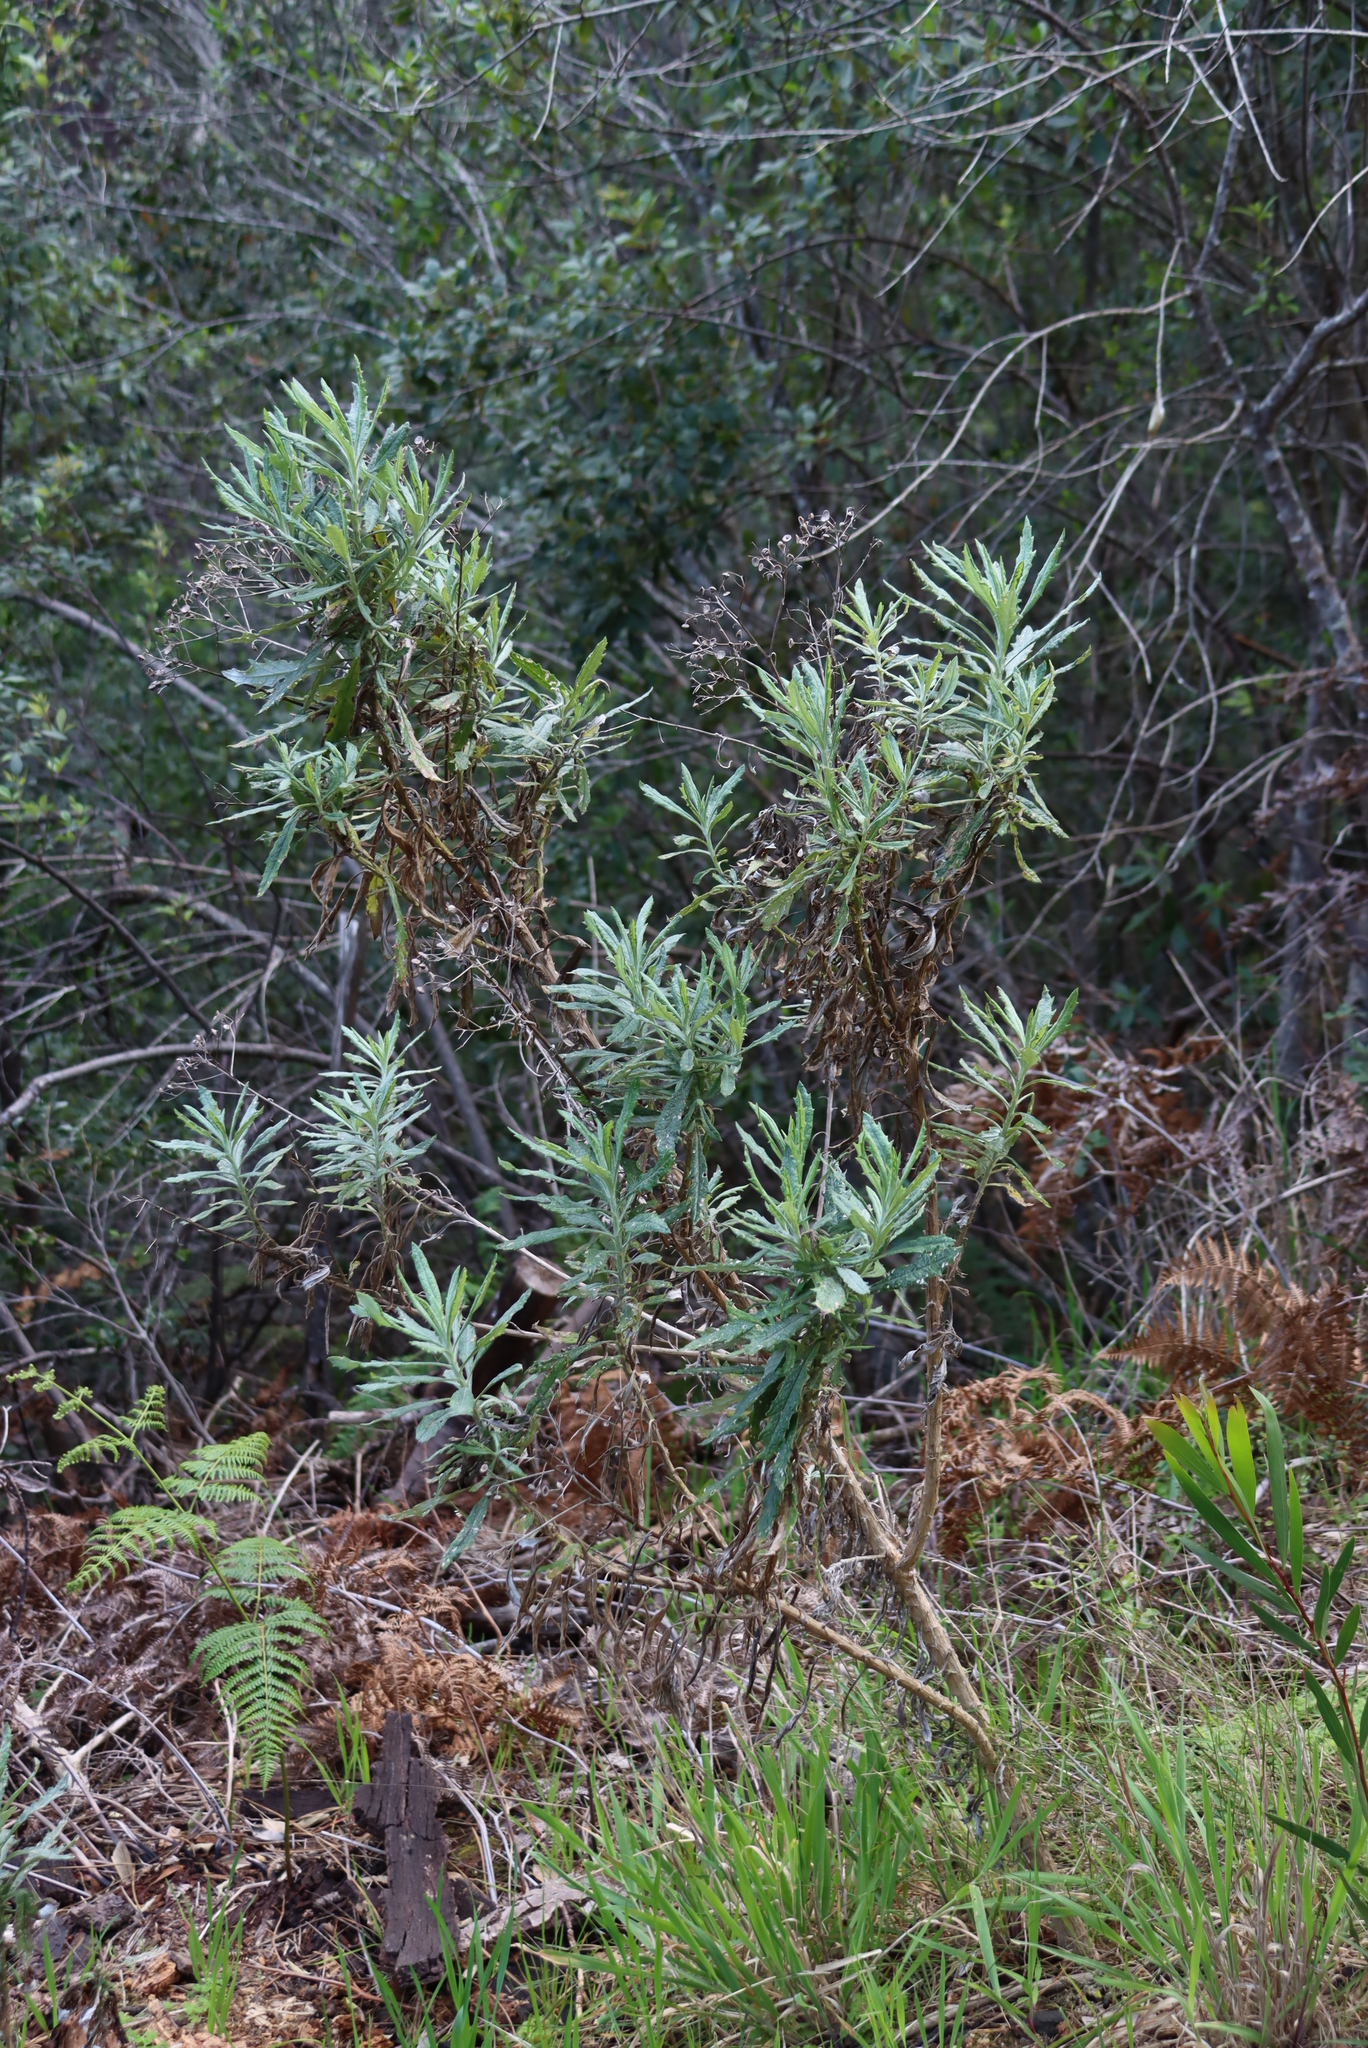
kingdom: Plantae
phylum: Tracheophyta
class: Magnoliopsida
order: Asterales
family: Asteraceae
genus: Senecio
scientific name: Senecio pterophorus
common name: Shoddy ragwort
